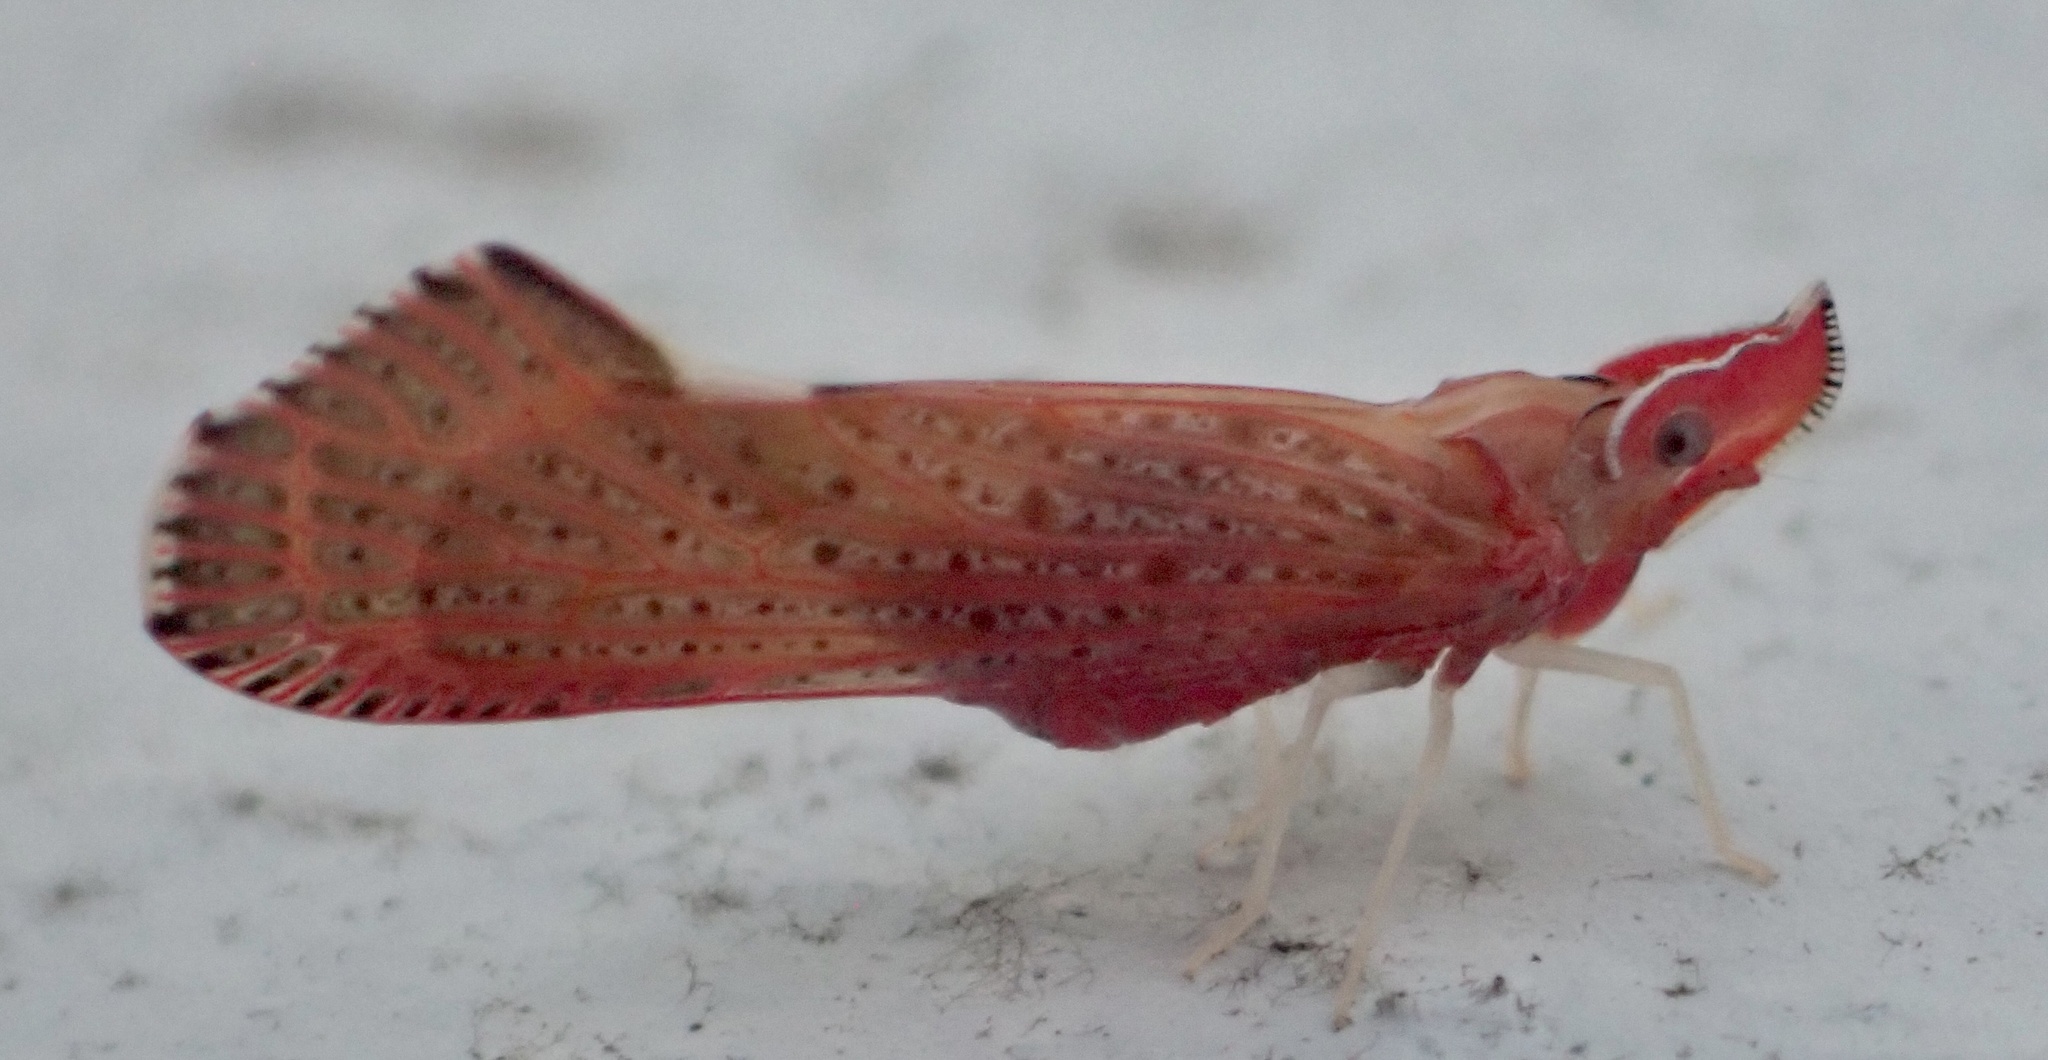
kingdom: Animalia
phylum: Arthropoda
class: Insecta
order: Hemiptera
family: Derbidae
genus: Apache
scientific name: Apache degeeri
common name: Red-fanned planthopper
